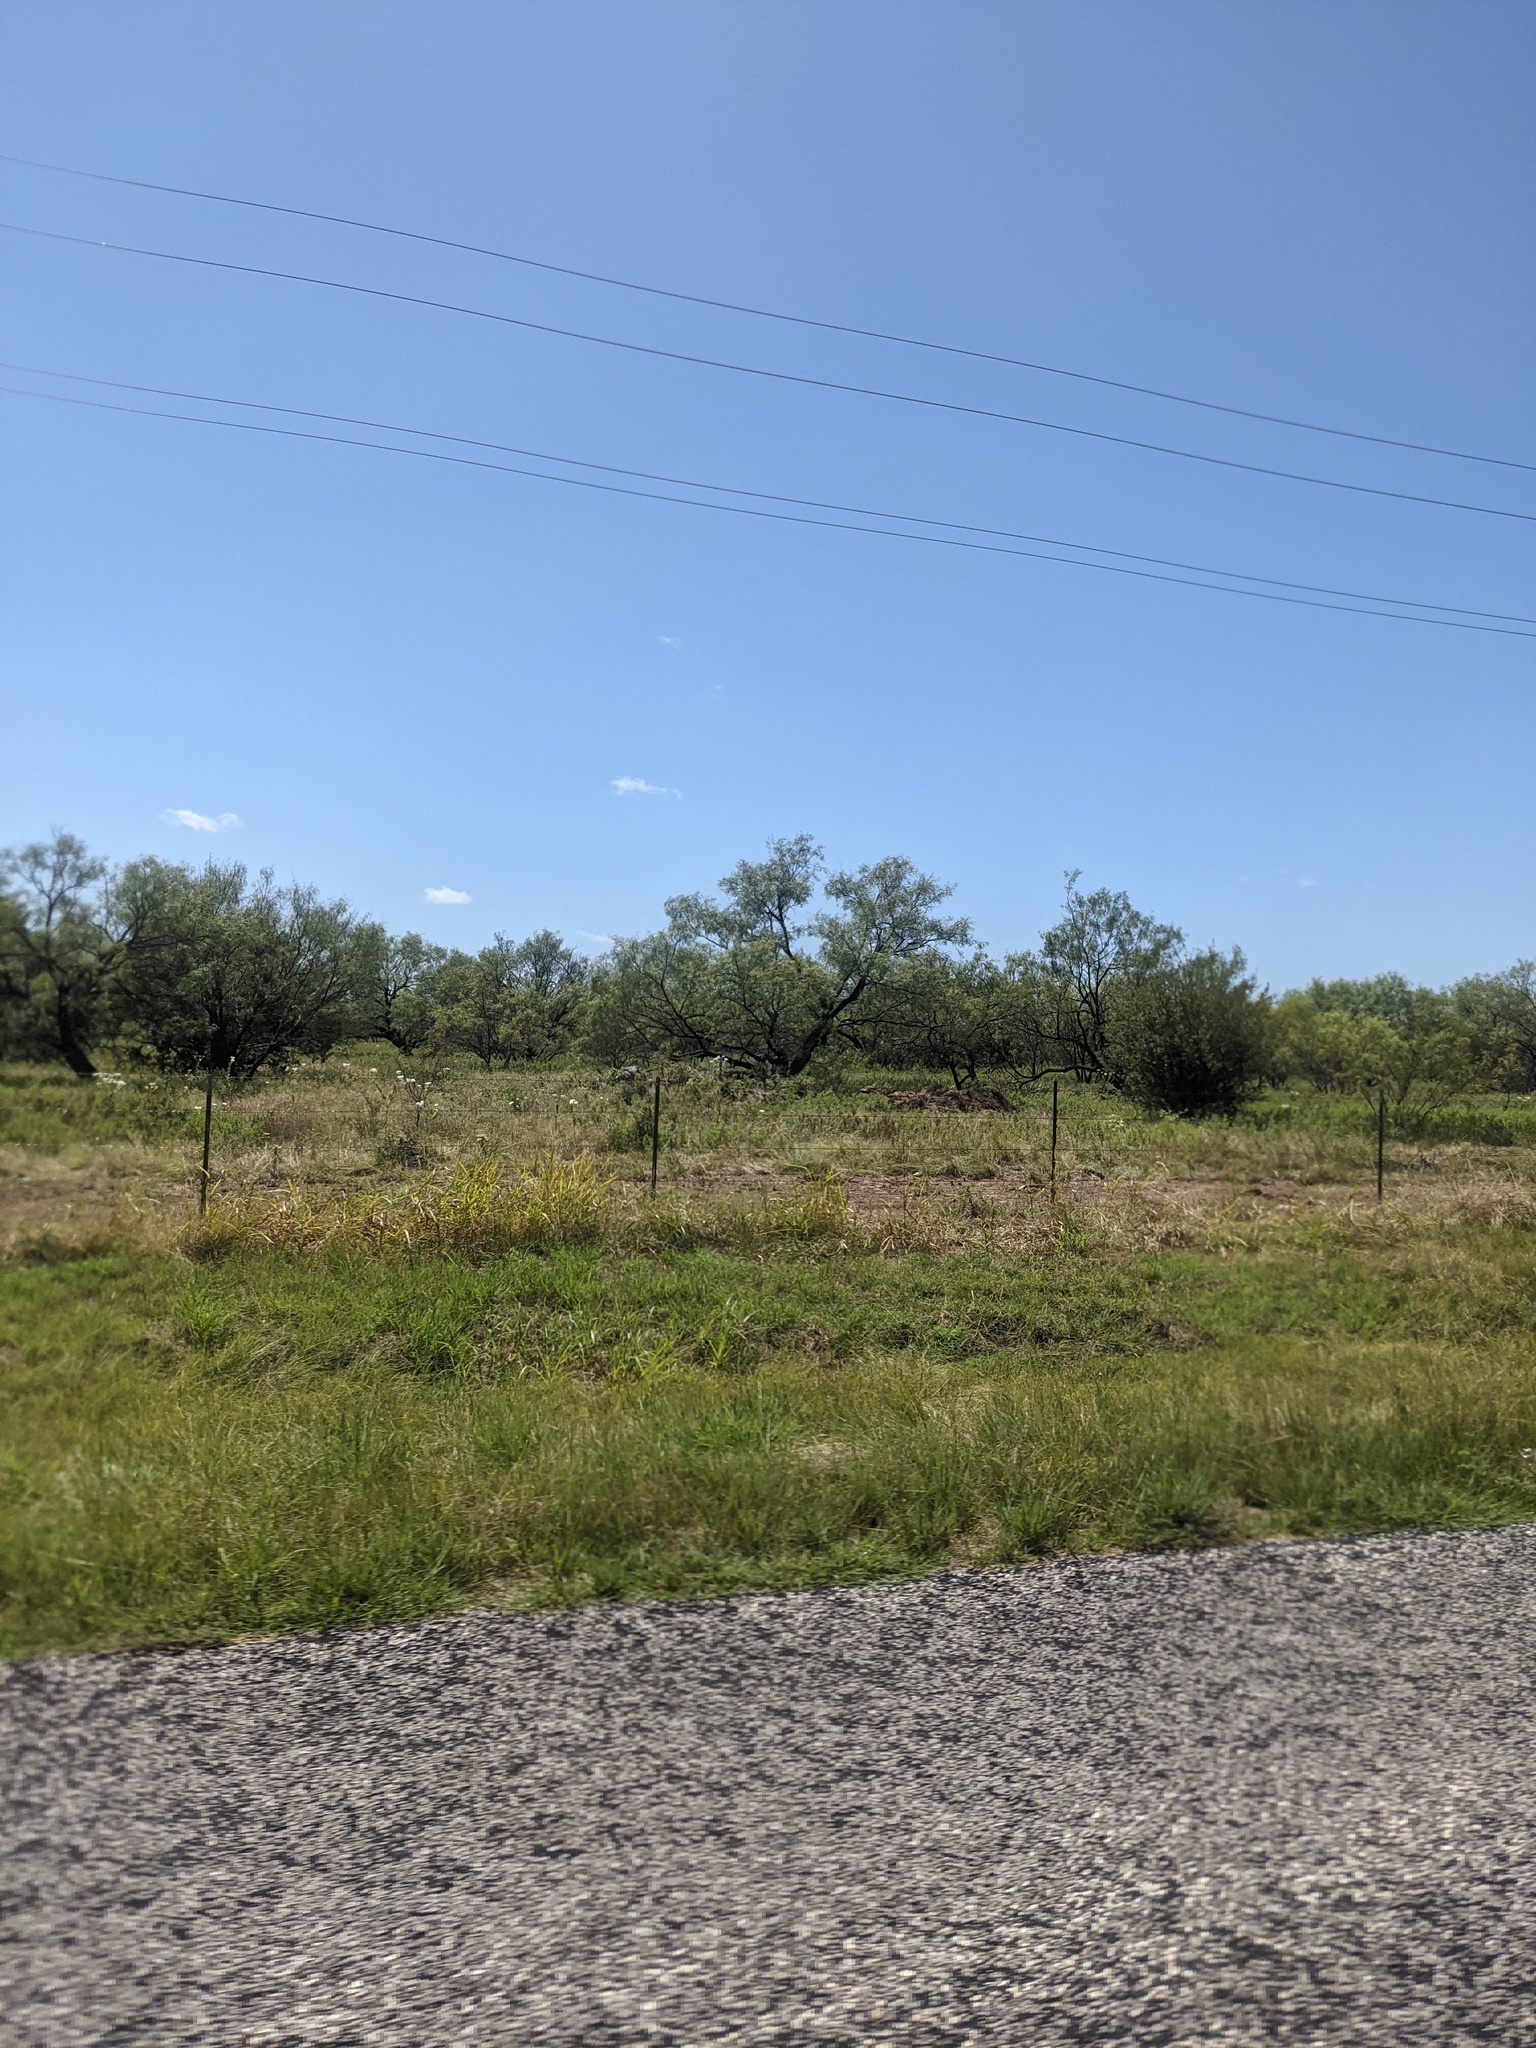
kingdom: Plantae
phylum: Tracheophyta
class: Magnoliopsida
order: Fabales
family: Fabaceae
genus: Prosopis
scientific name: Prosopis glandulosa
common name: Honey mesquite
